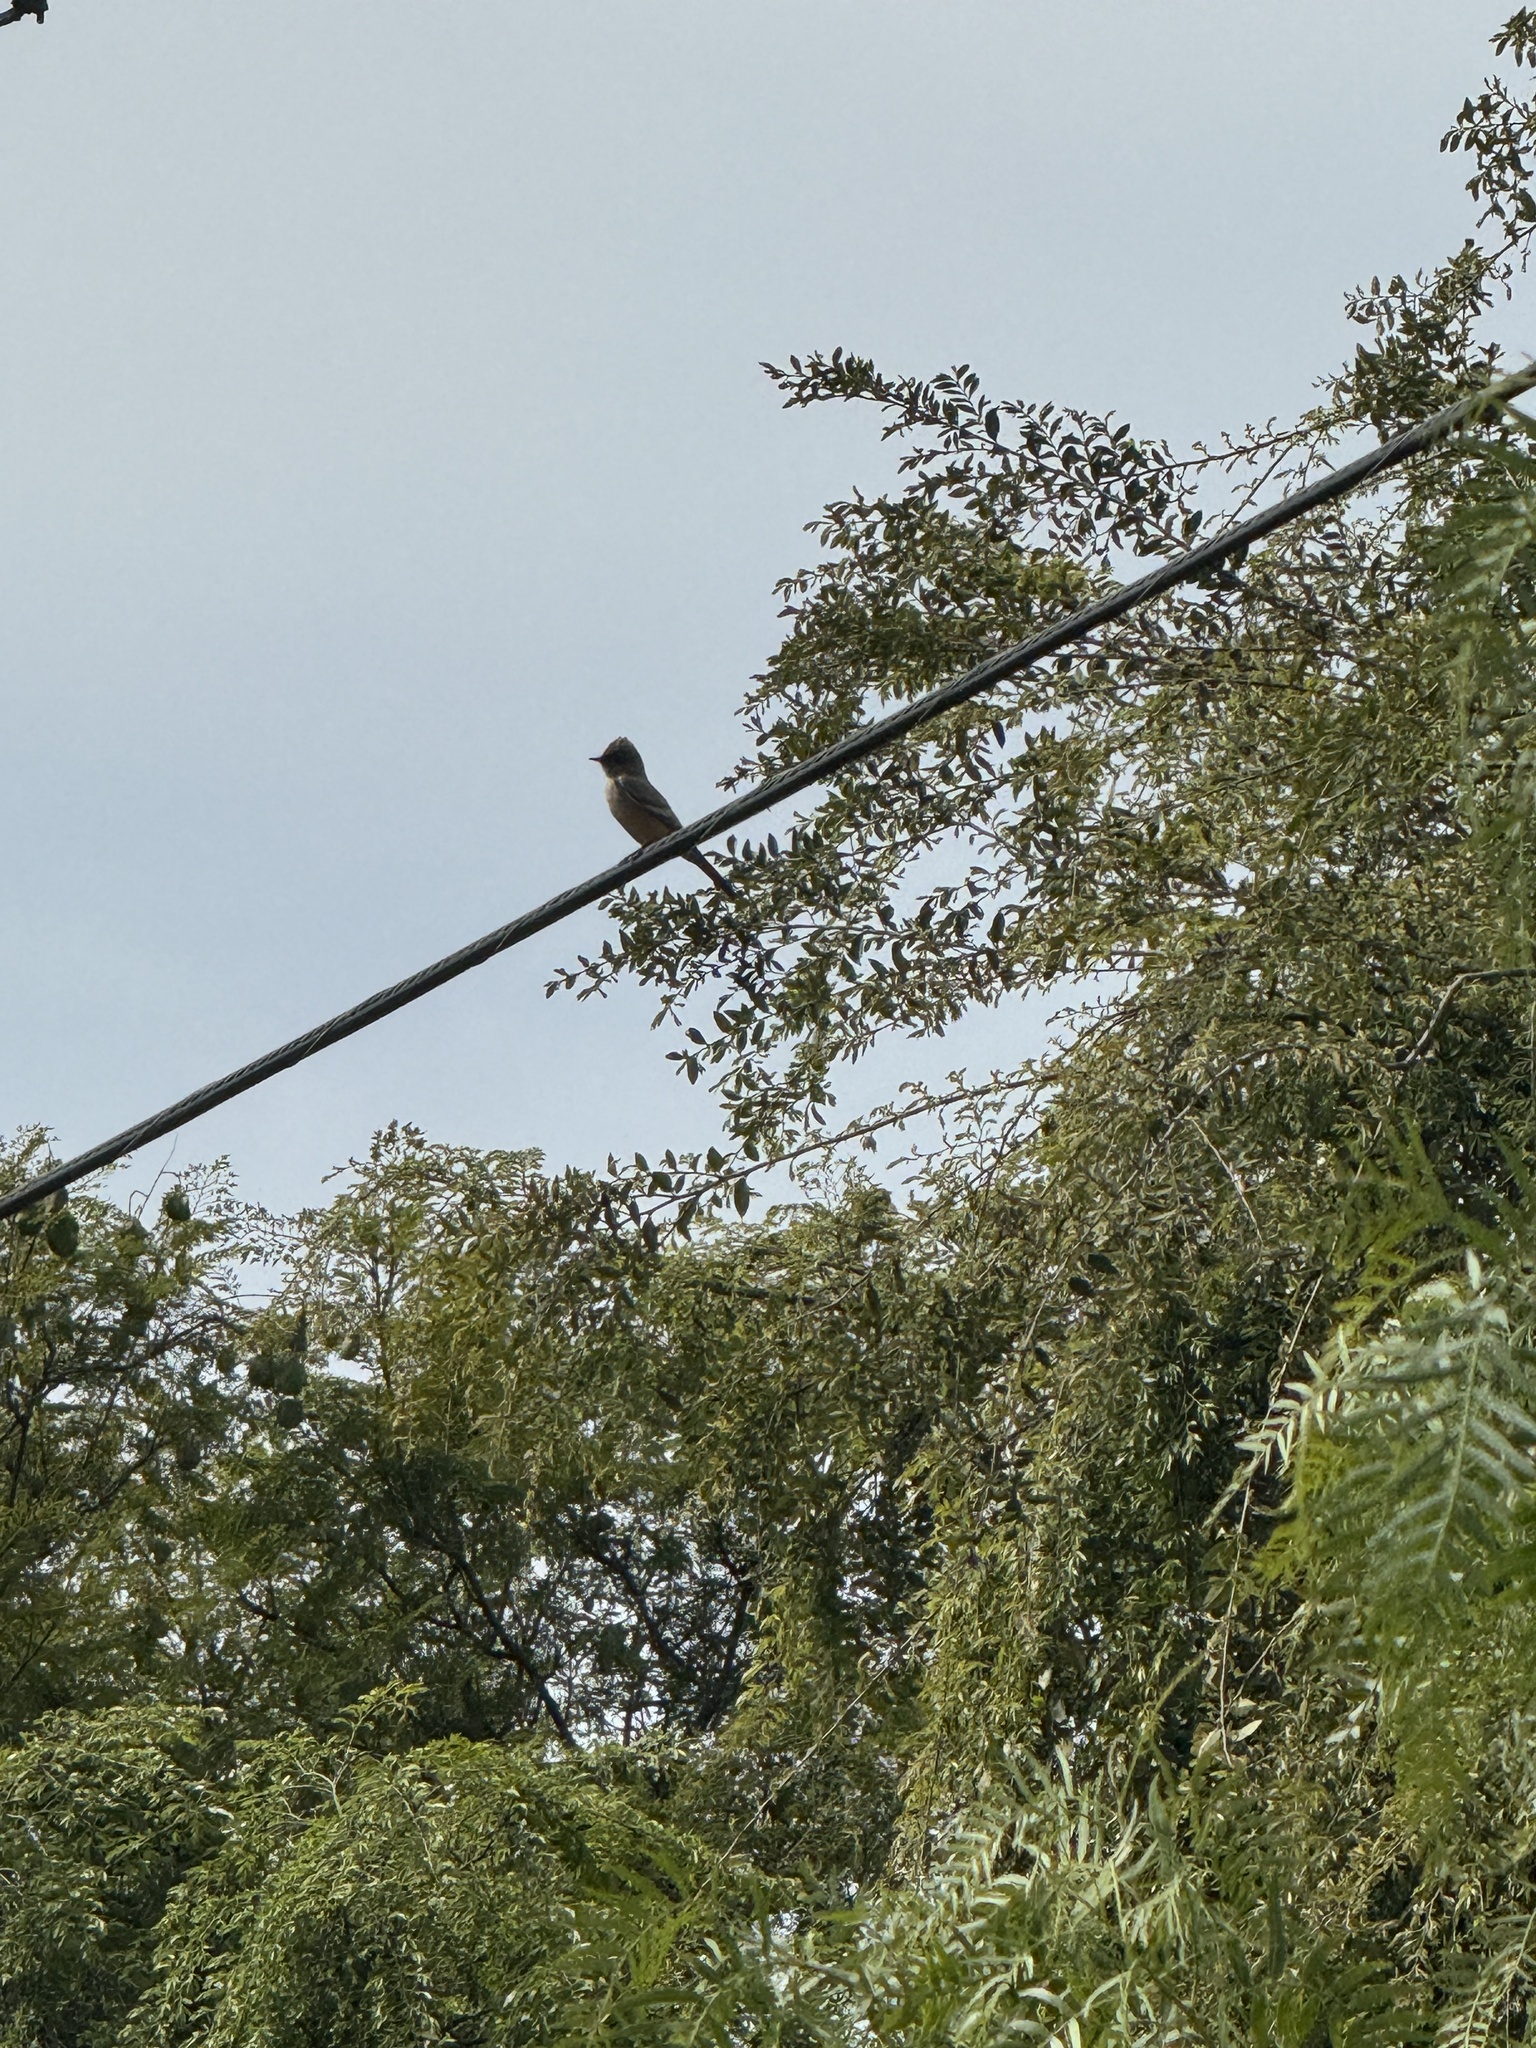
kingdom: Animalia
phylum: Chordata
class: Aves
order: Passeriformes
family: Tyrannidae
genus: Sayornis
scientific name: Sayornis saya
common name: Say's phoebe
